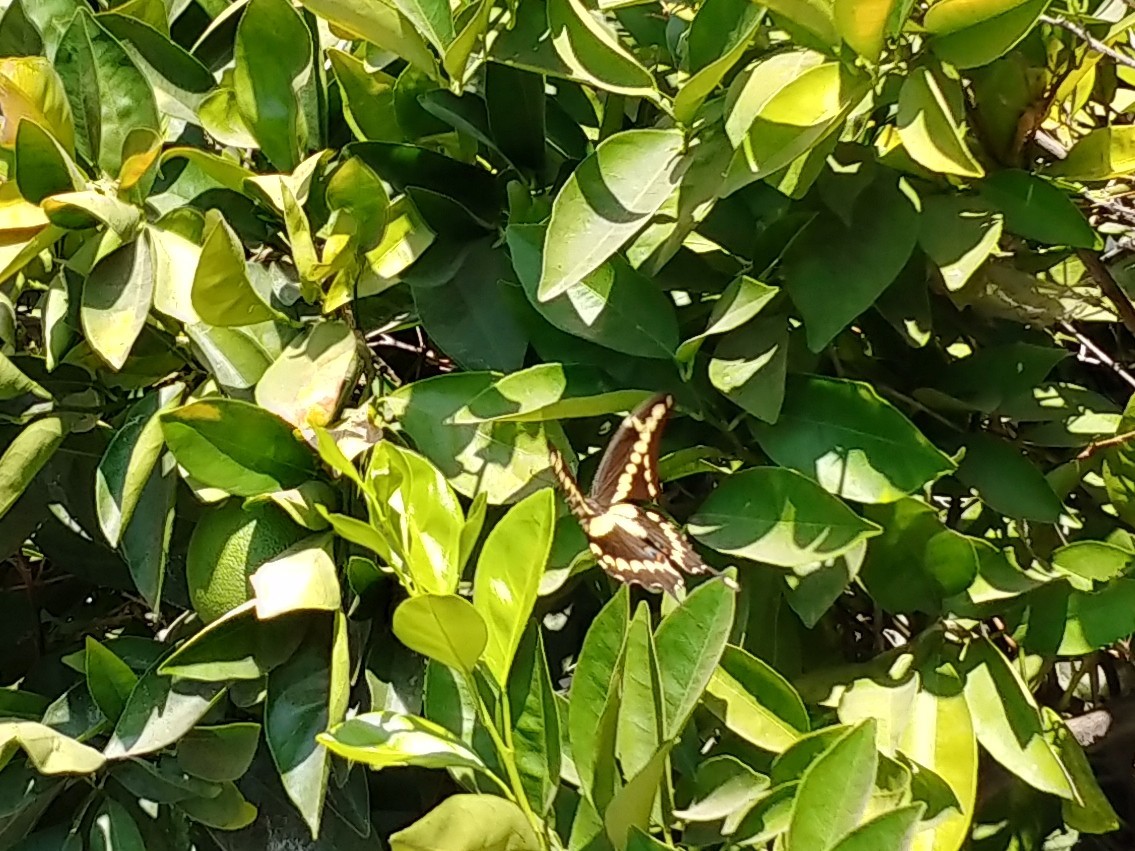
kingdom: Animalia
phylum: Arthropoda
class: Insecta
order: Lepidoptera
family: Papilionidae
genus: Papilio
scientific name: Papilio rumiko
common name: Western giant swallowtail
